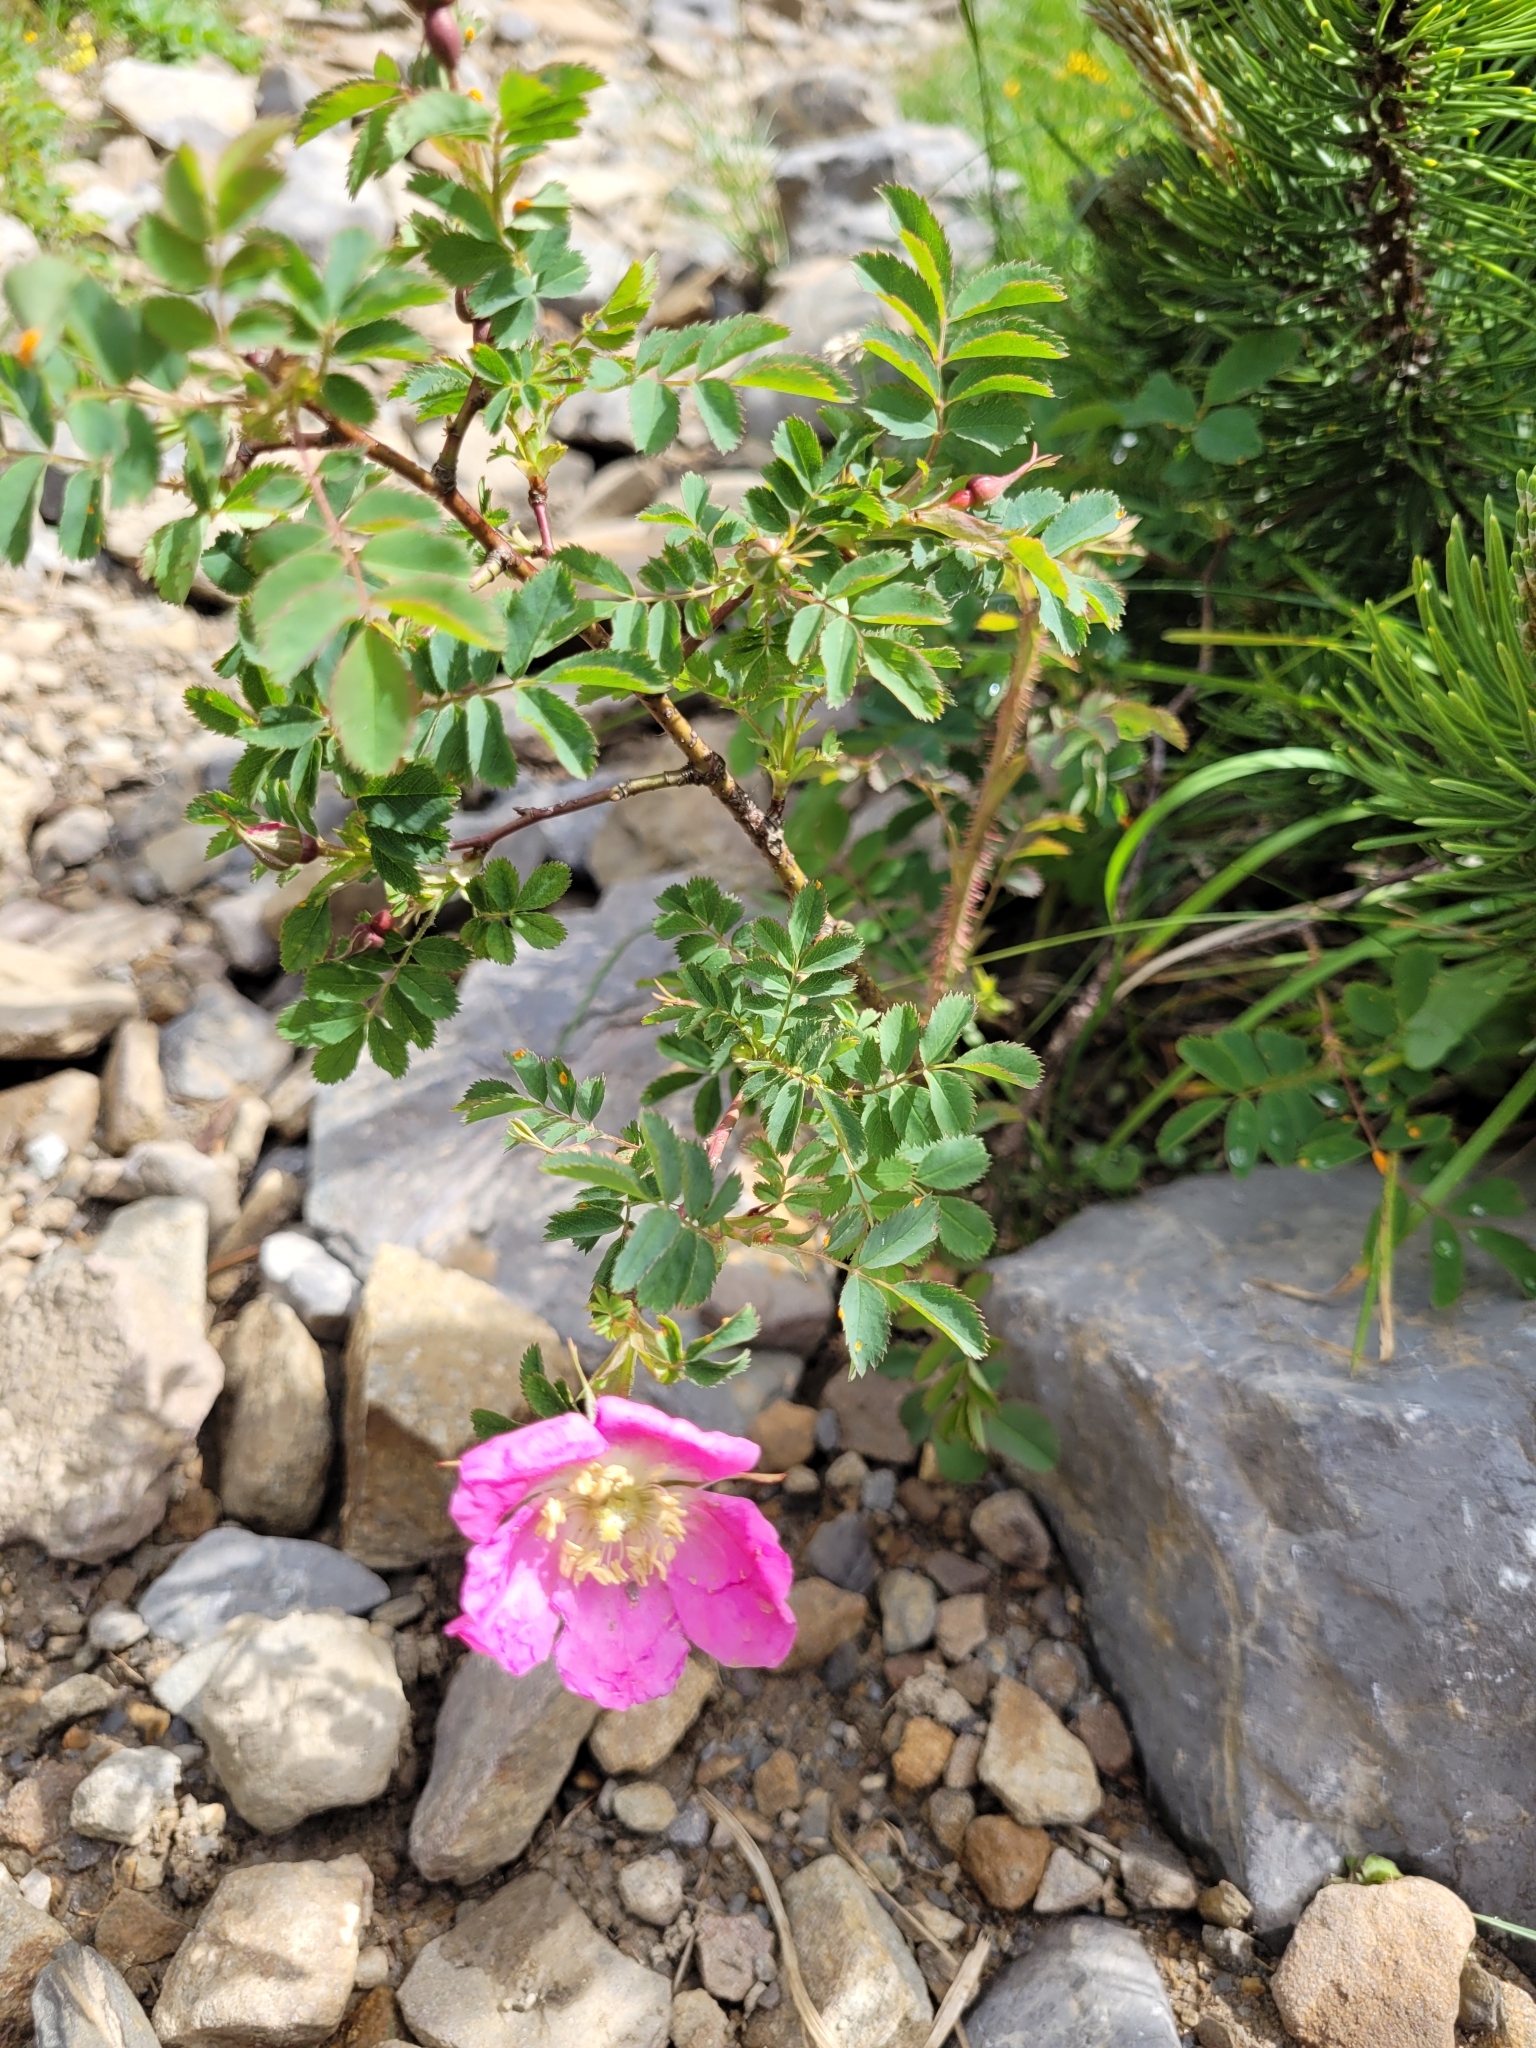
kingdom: Plantae
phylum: Tracheophyta
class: Magnoliopsida
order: Rosales
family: Rosaceae
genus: Rosa
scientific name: Rosa pendulina
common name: Alpine rose
